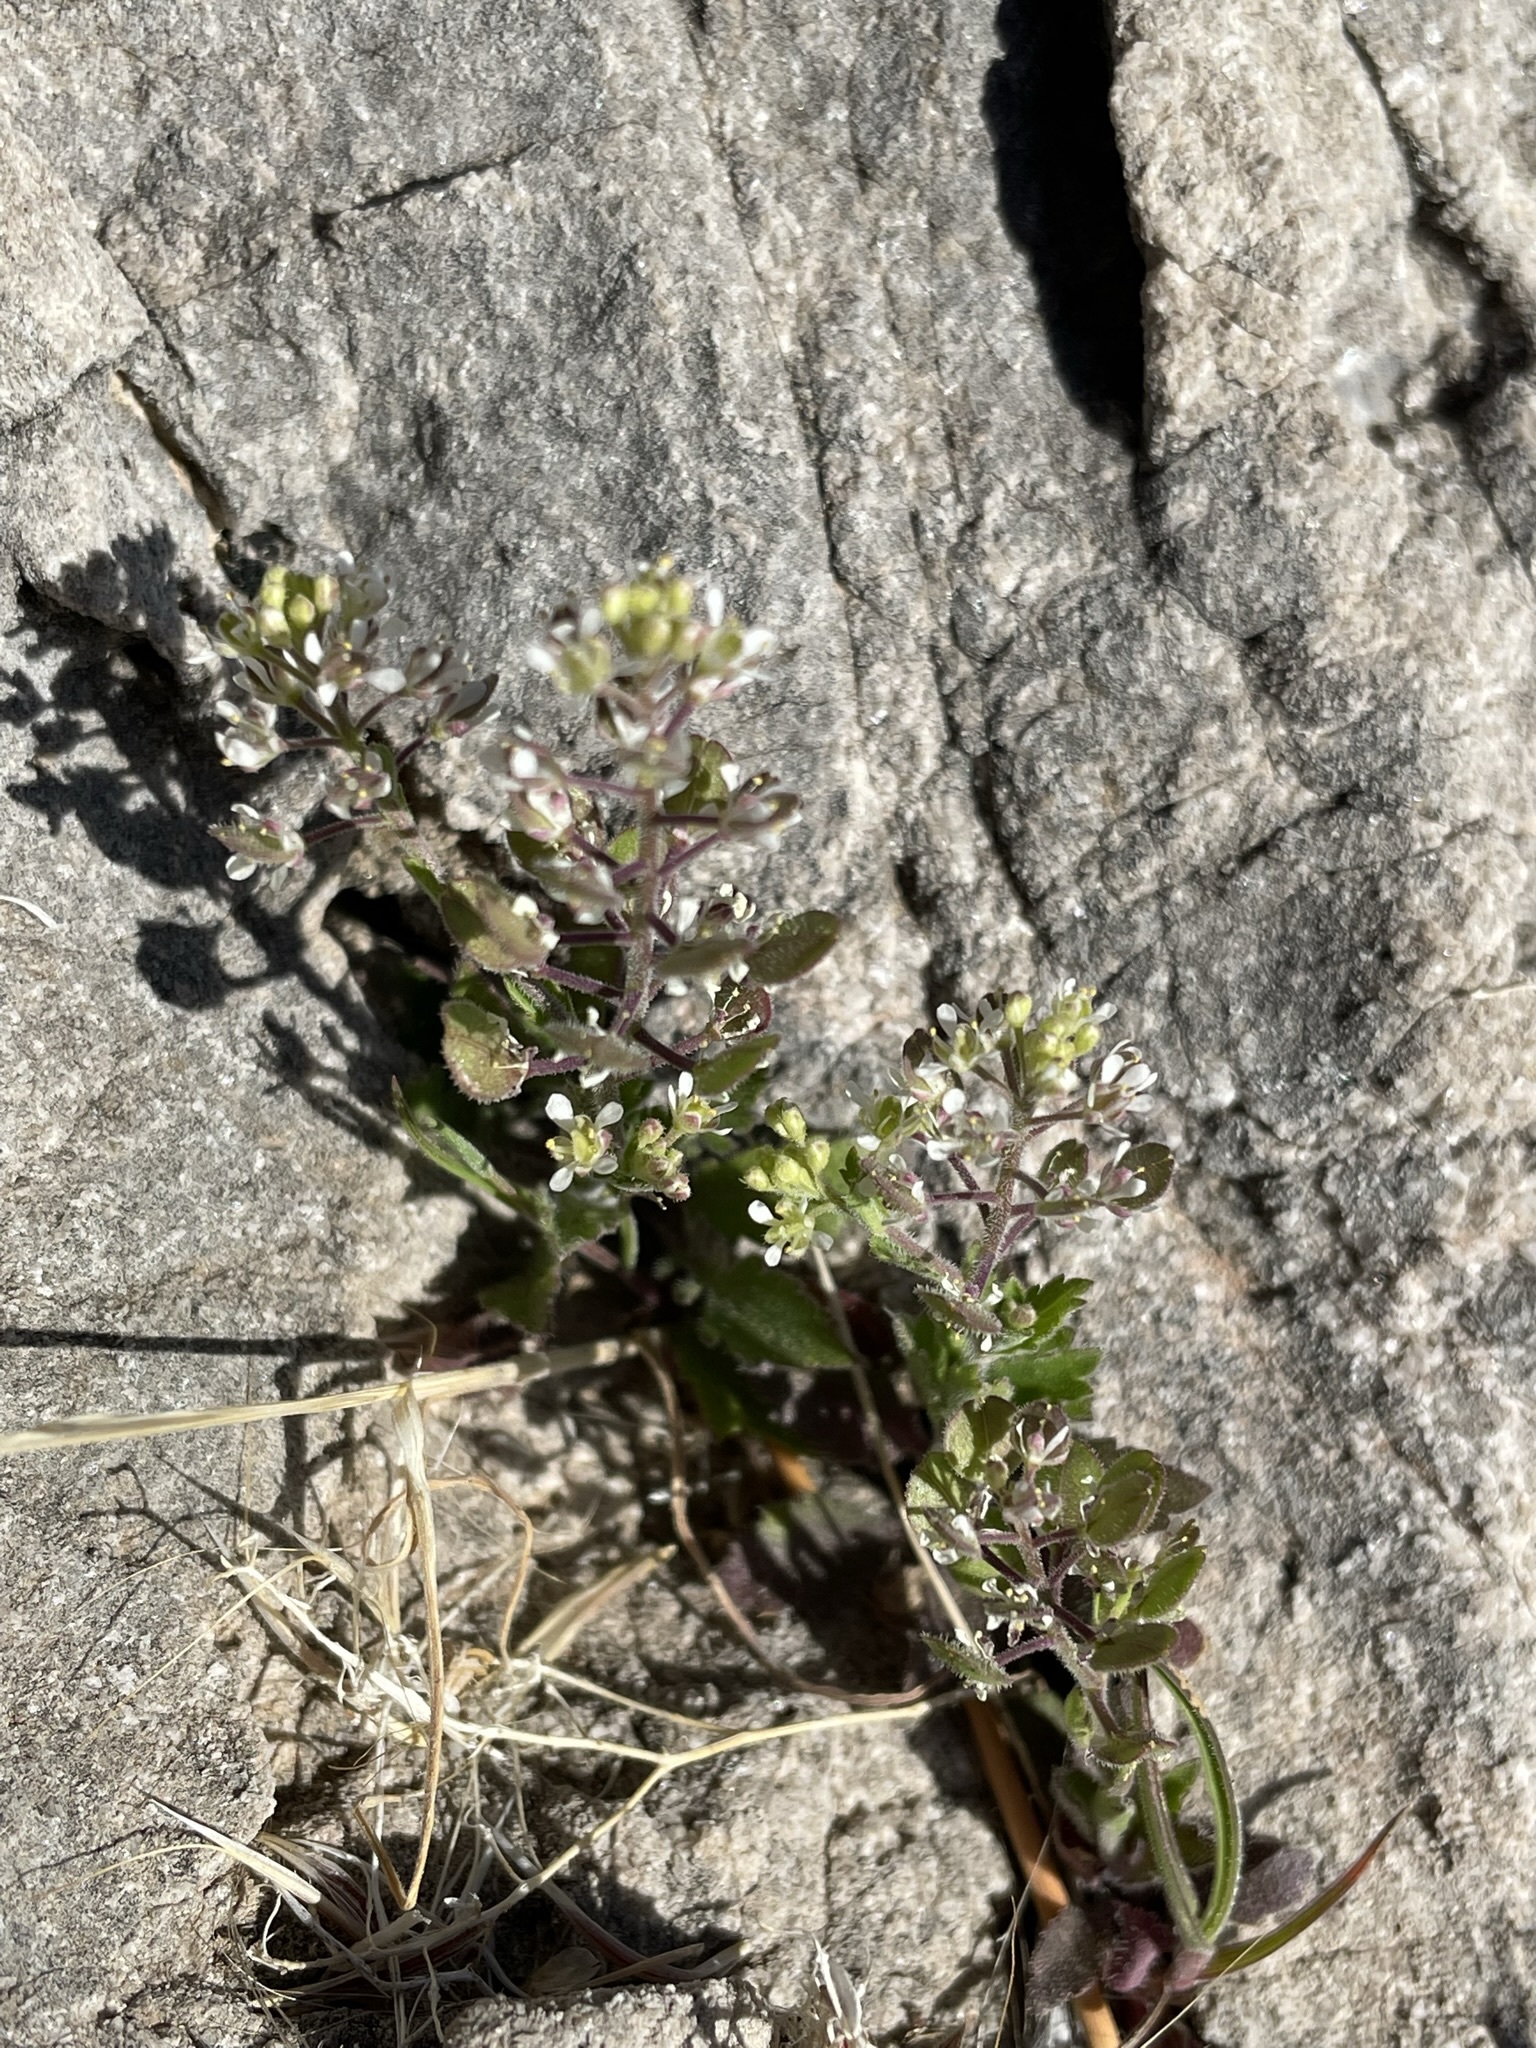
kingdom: Plantae
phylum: Tracheophyta
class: Magnoliopsida
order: Brassicales
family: Brassicaceae
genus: Lepidium
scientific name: Lepidium lasiocarpum
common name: Hairy-pod pepperwort
